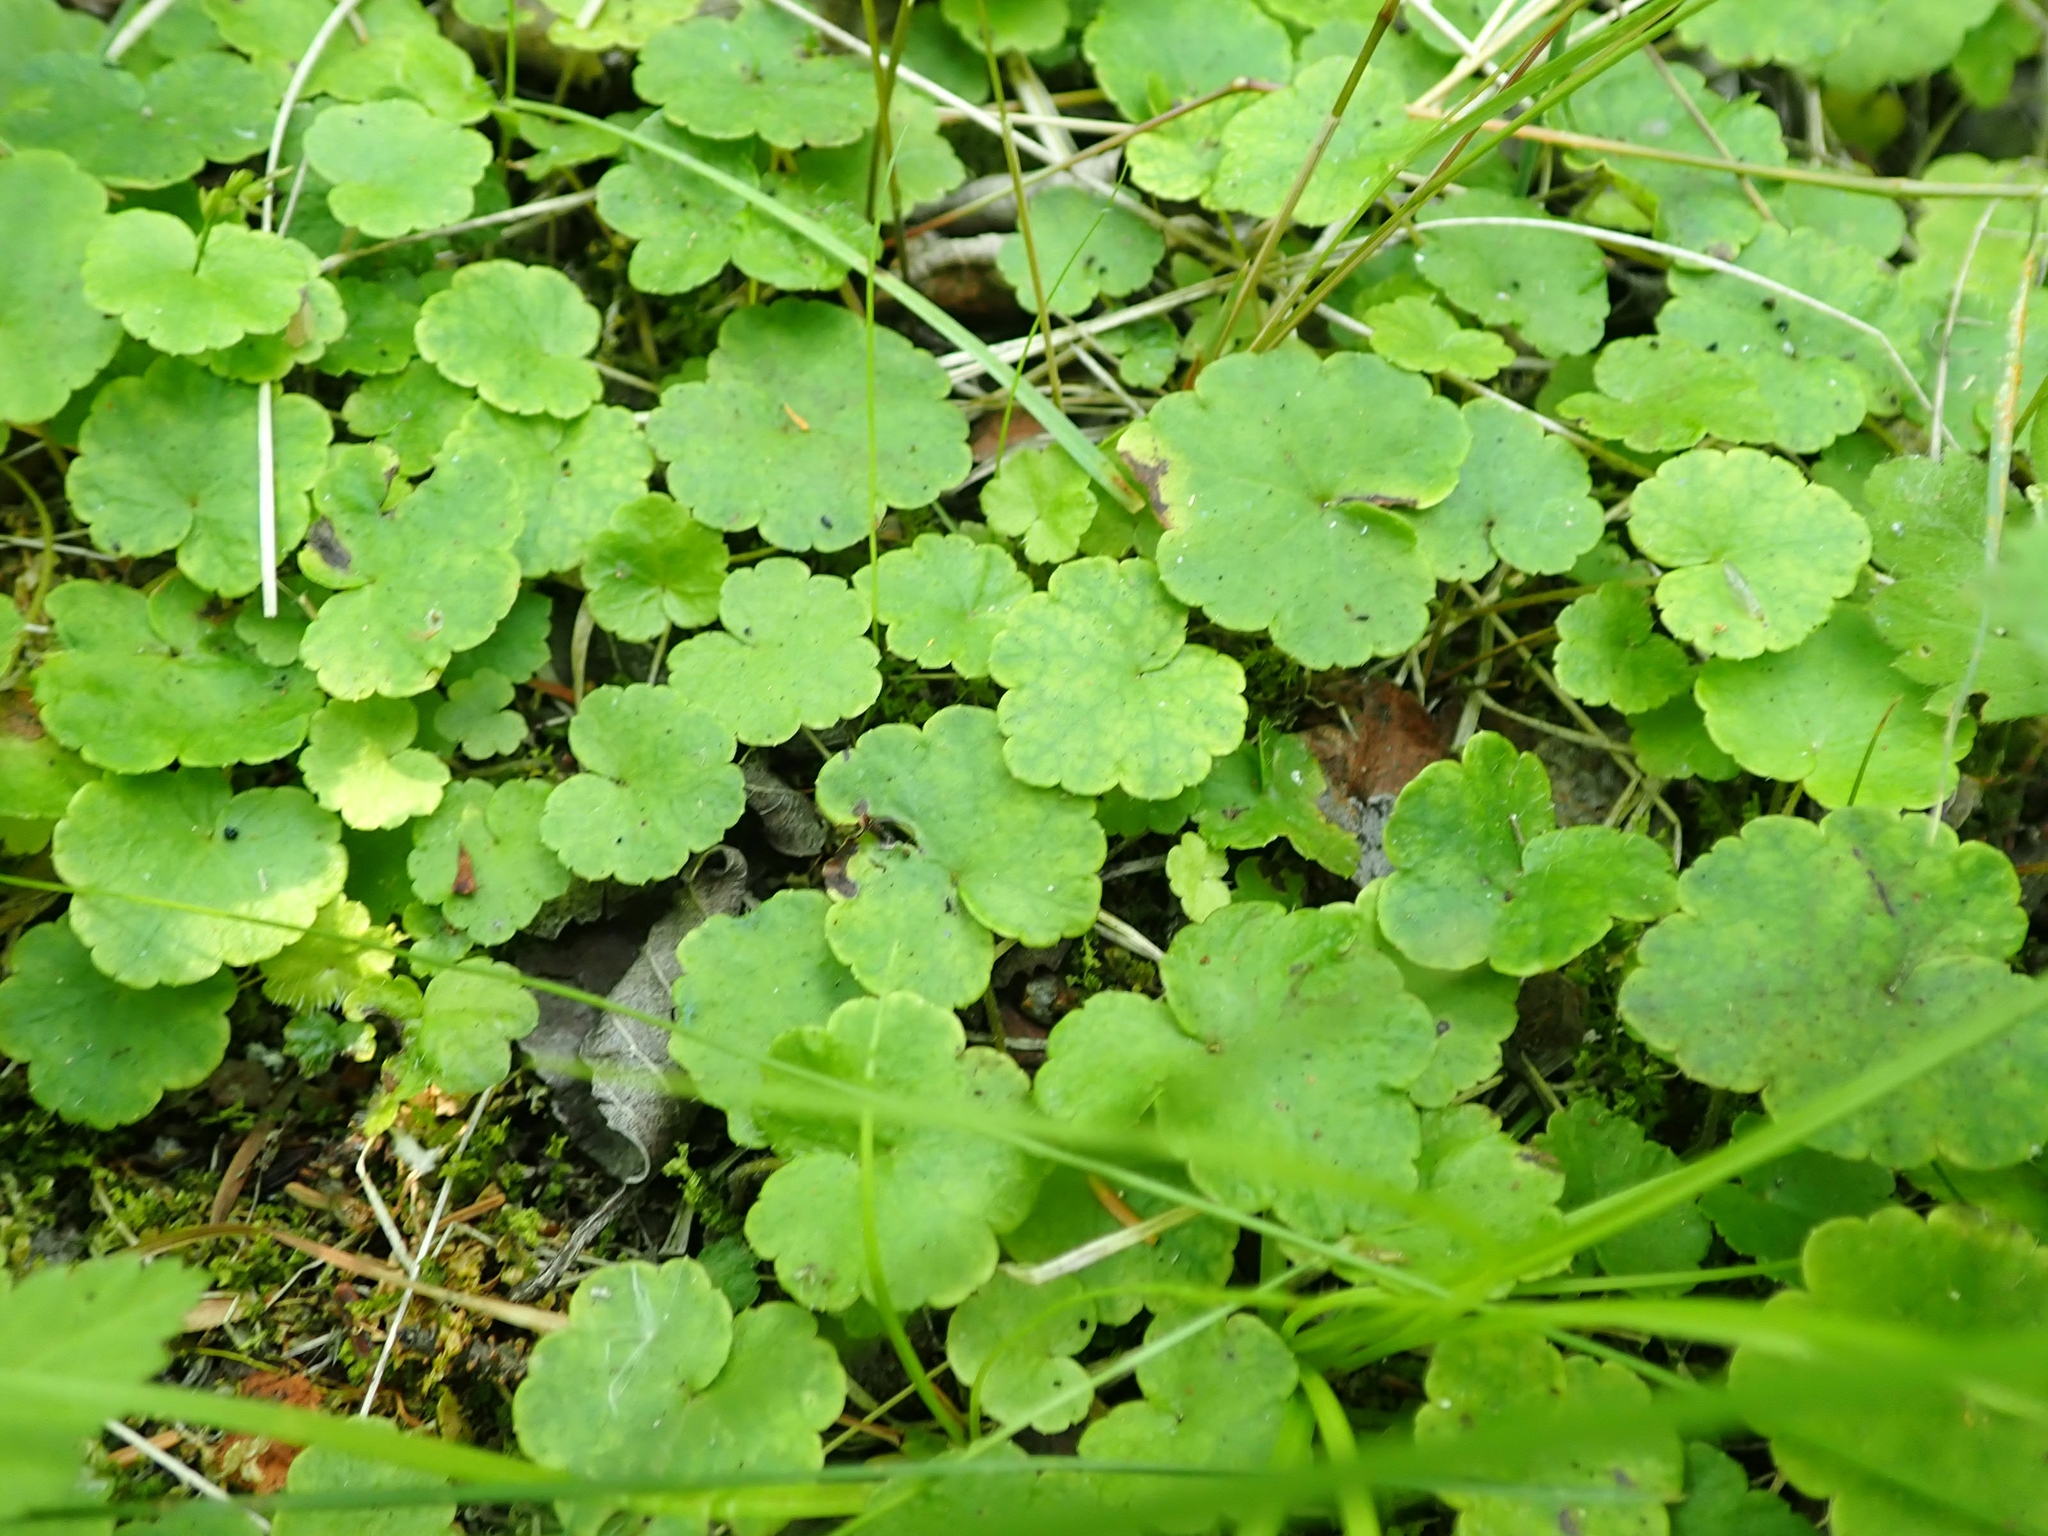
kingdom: Plantae
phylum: Tracheophyta
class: Magnoliopsida
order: Saxifragales
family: Saxifragaceae
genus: Mitella
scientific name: Mitella nuda
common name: Bare-stemmed bishop's-cap
